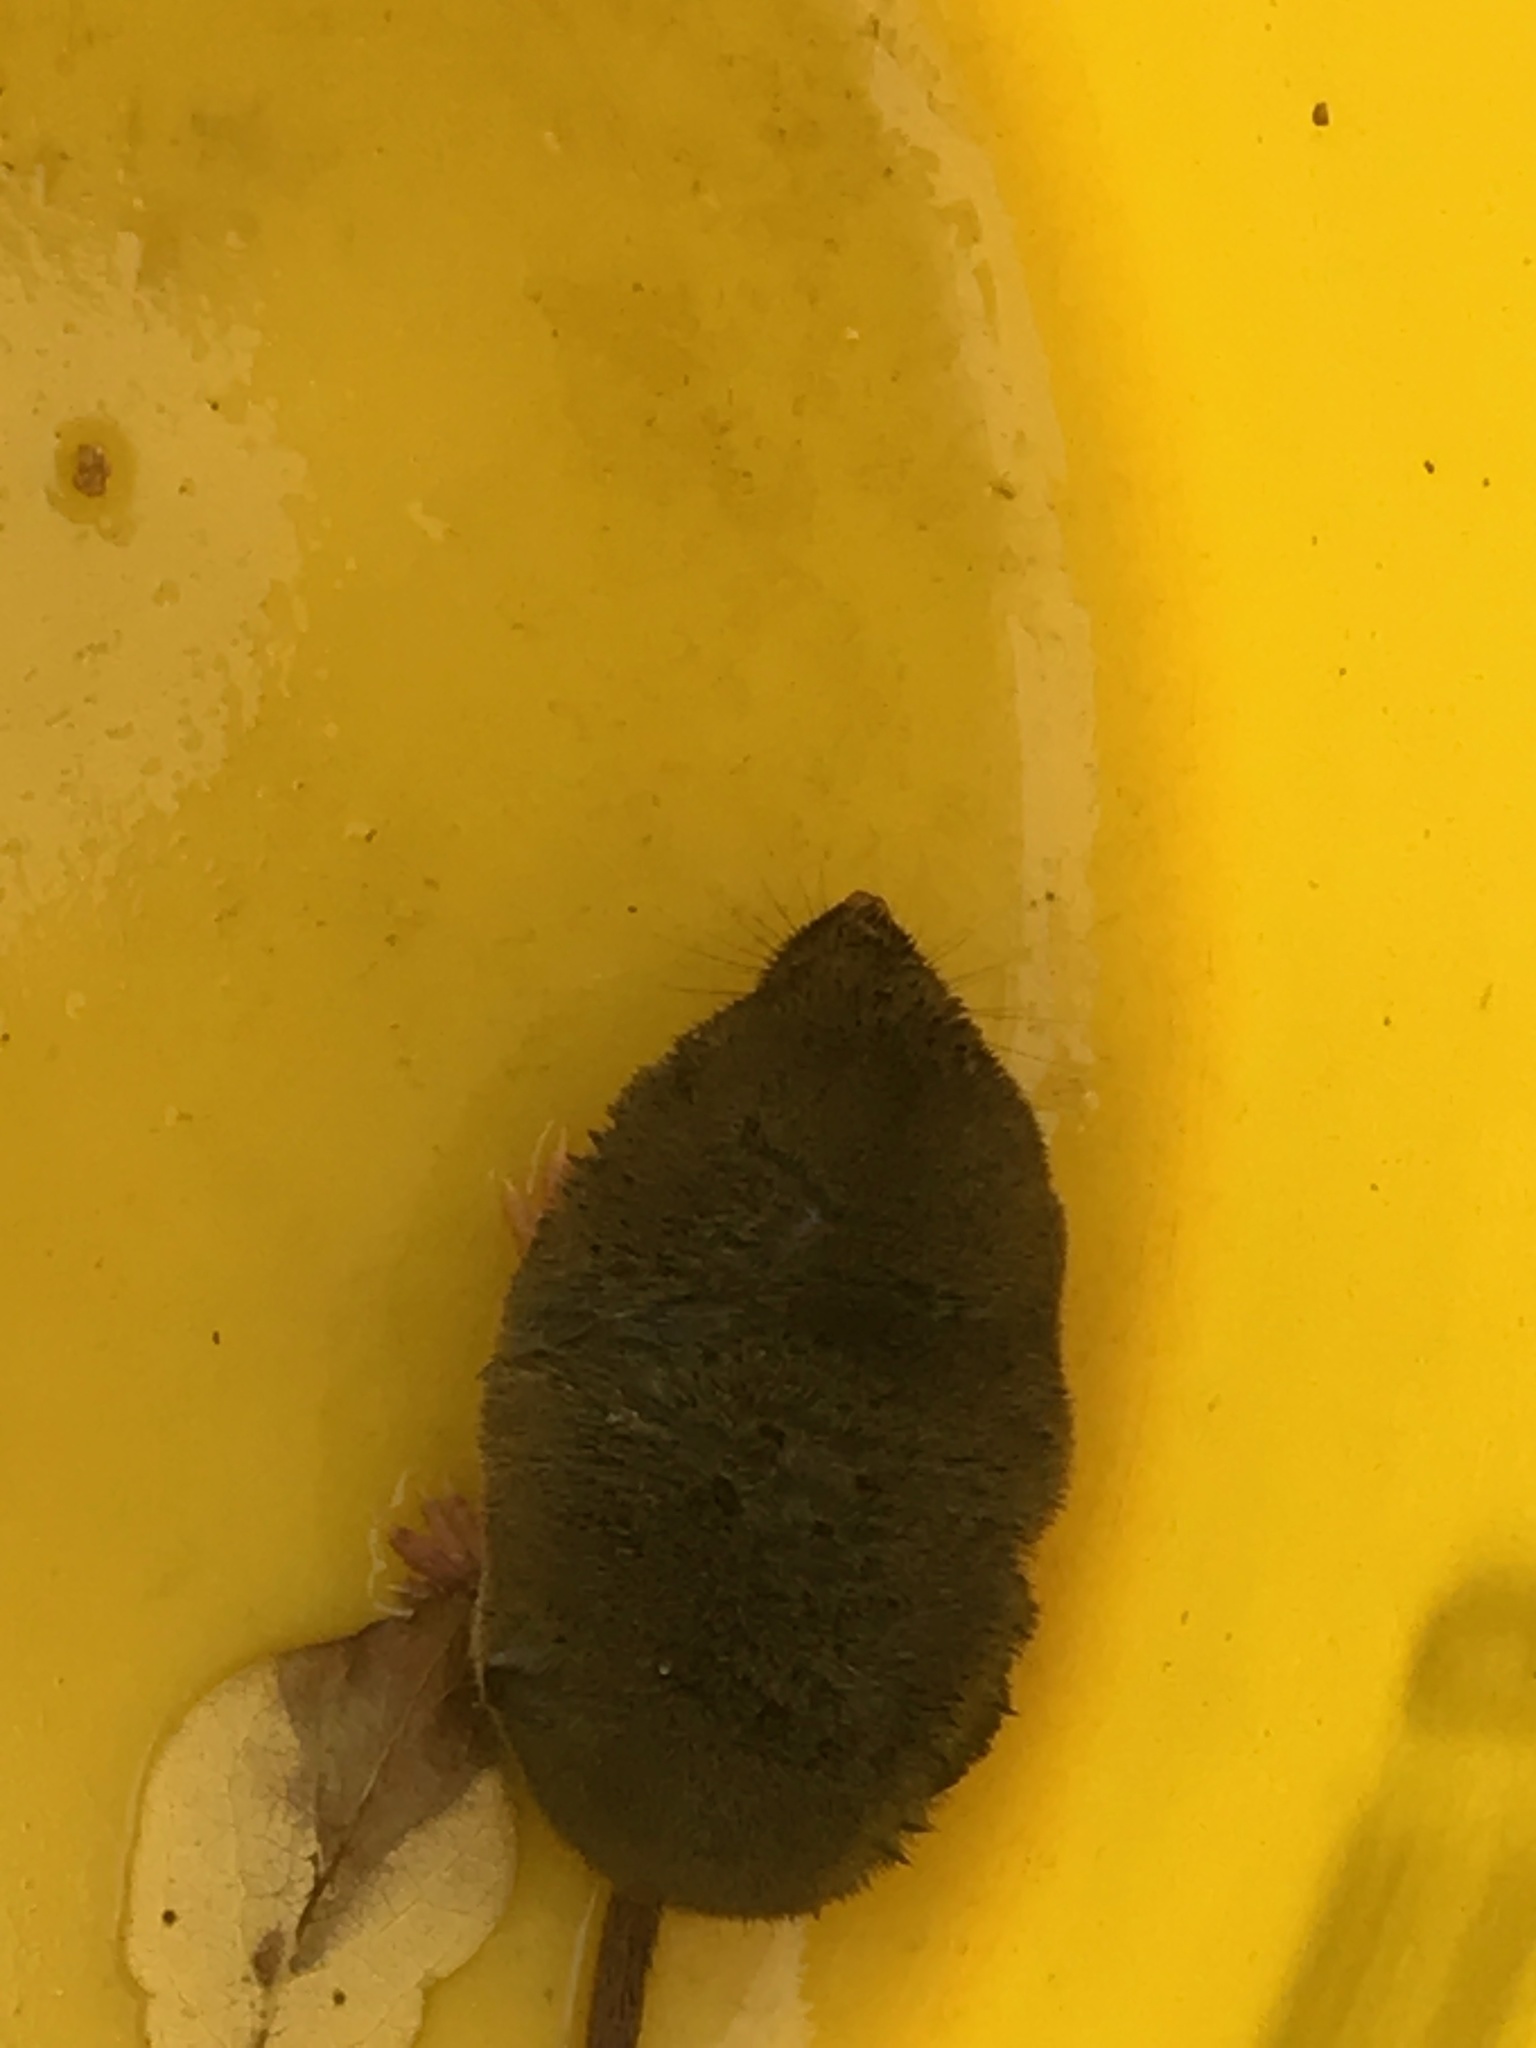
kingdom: Animalia
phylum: Chordata
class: Mammalia
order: Soricomorpha
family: Soricidae
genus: Blarina
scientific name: Blarina brevicauda
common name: Northern short-tailed shrew
